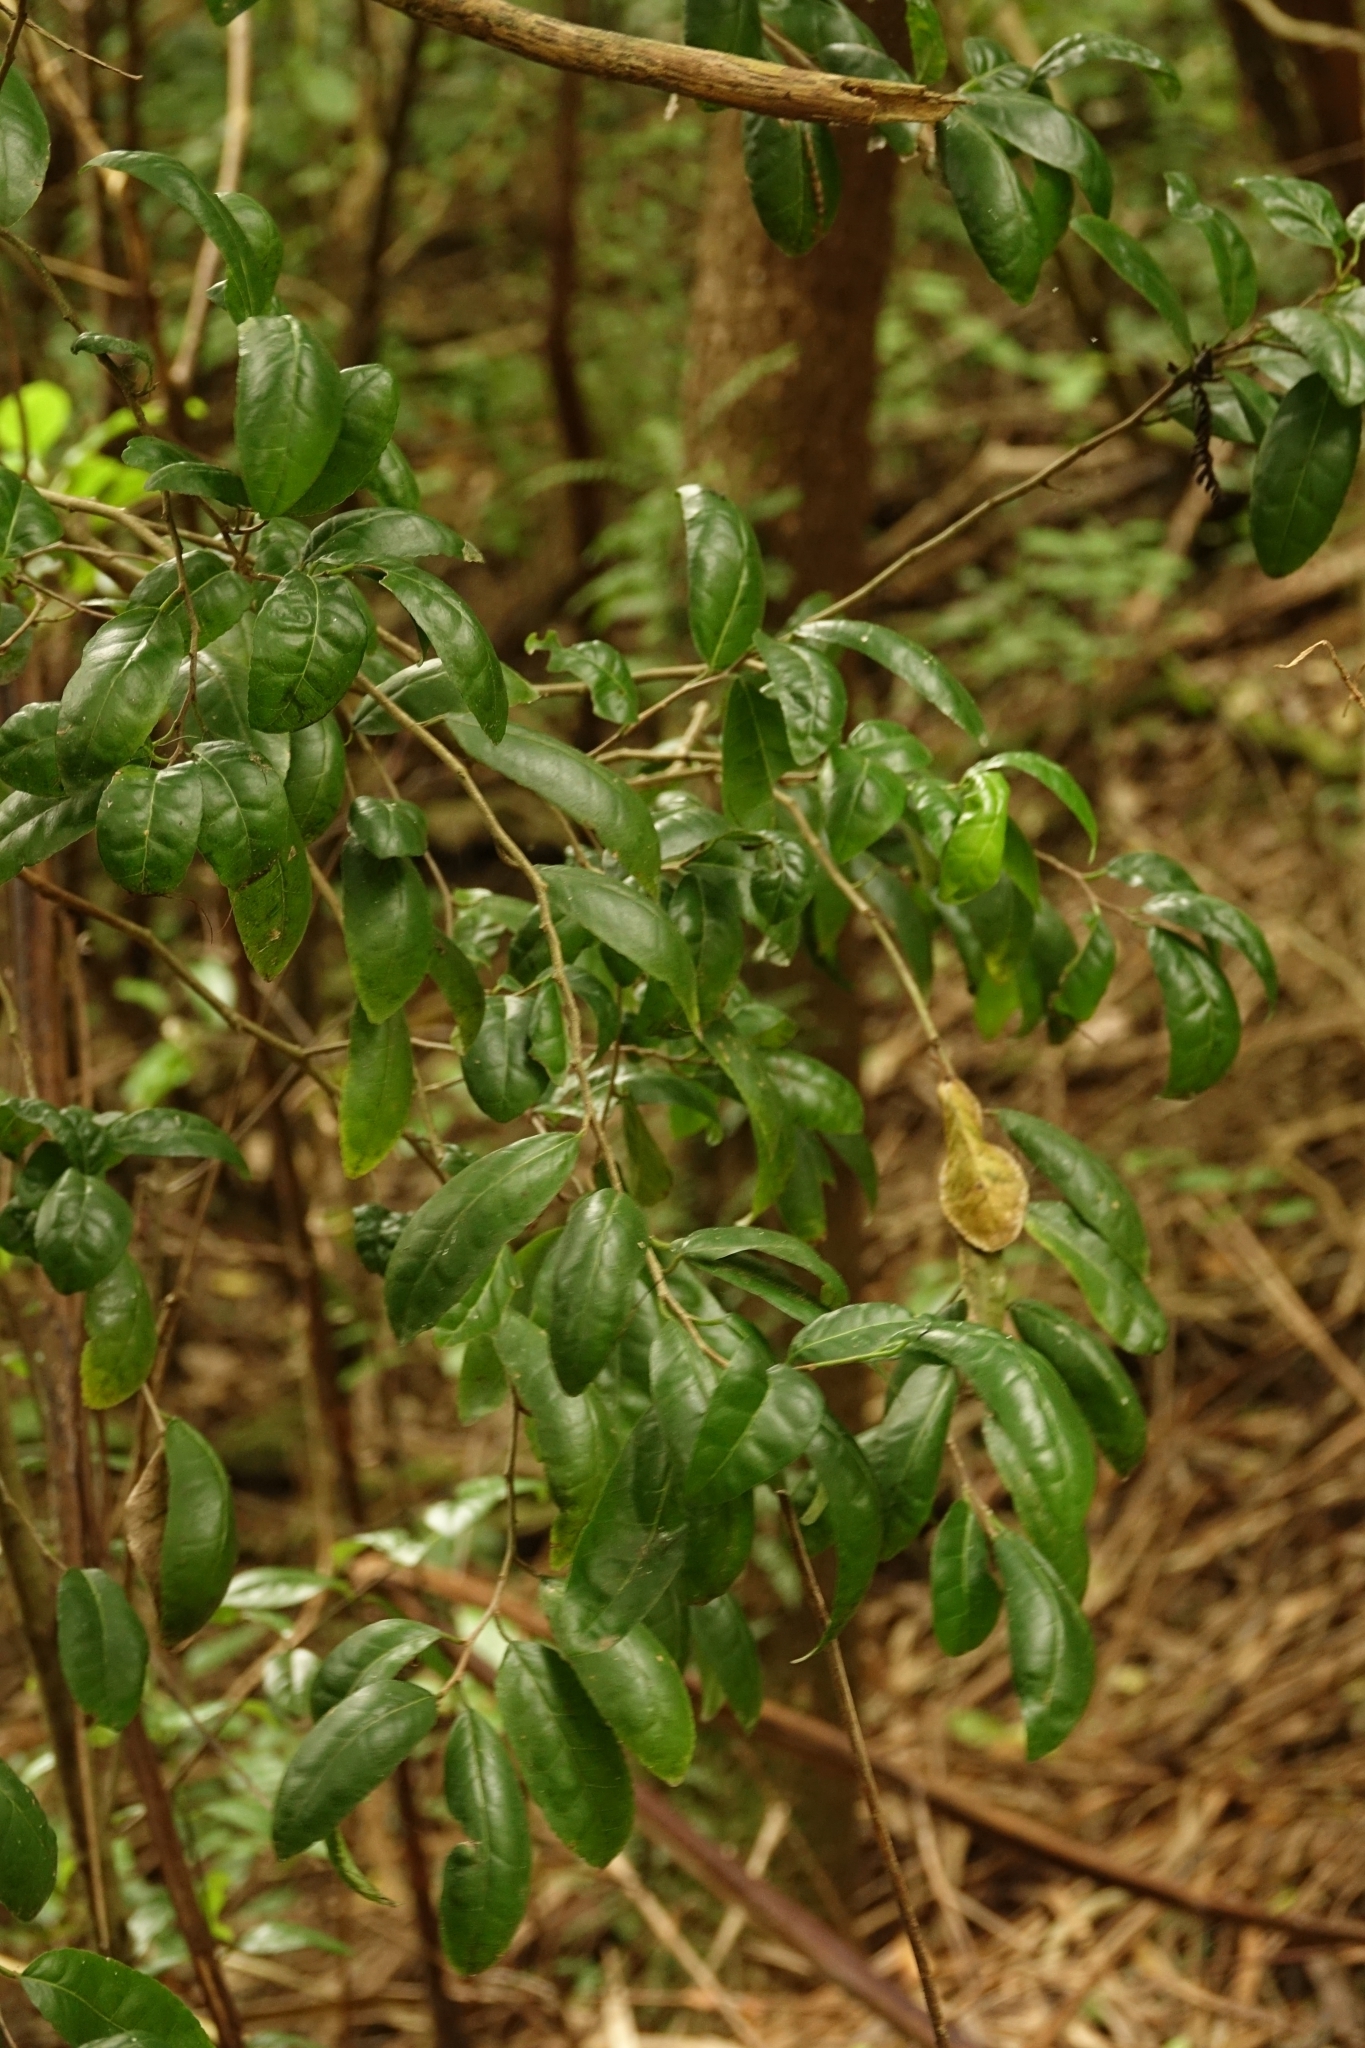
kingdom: Plantae
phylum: Tracheophyta
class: Magnoliopsida
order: Rosales
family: Moraceae
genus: Paratrophis
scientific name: Paratrophis banksii
